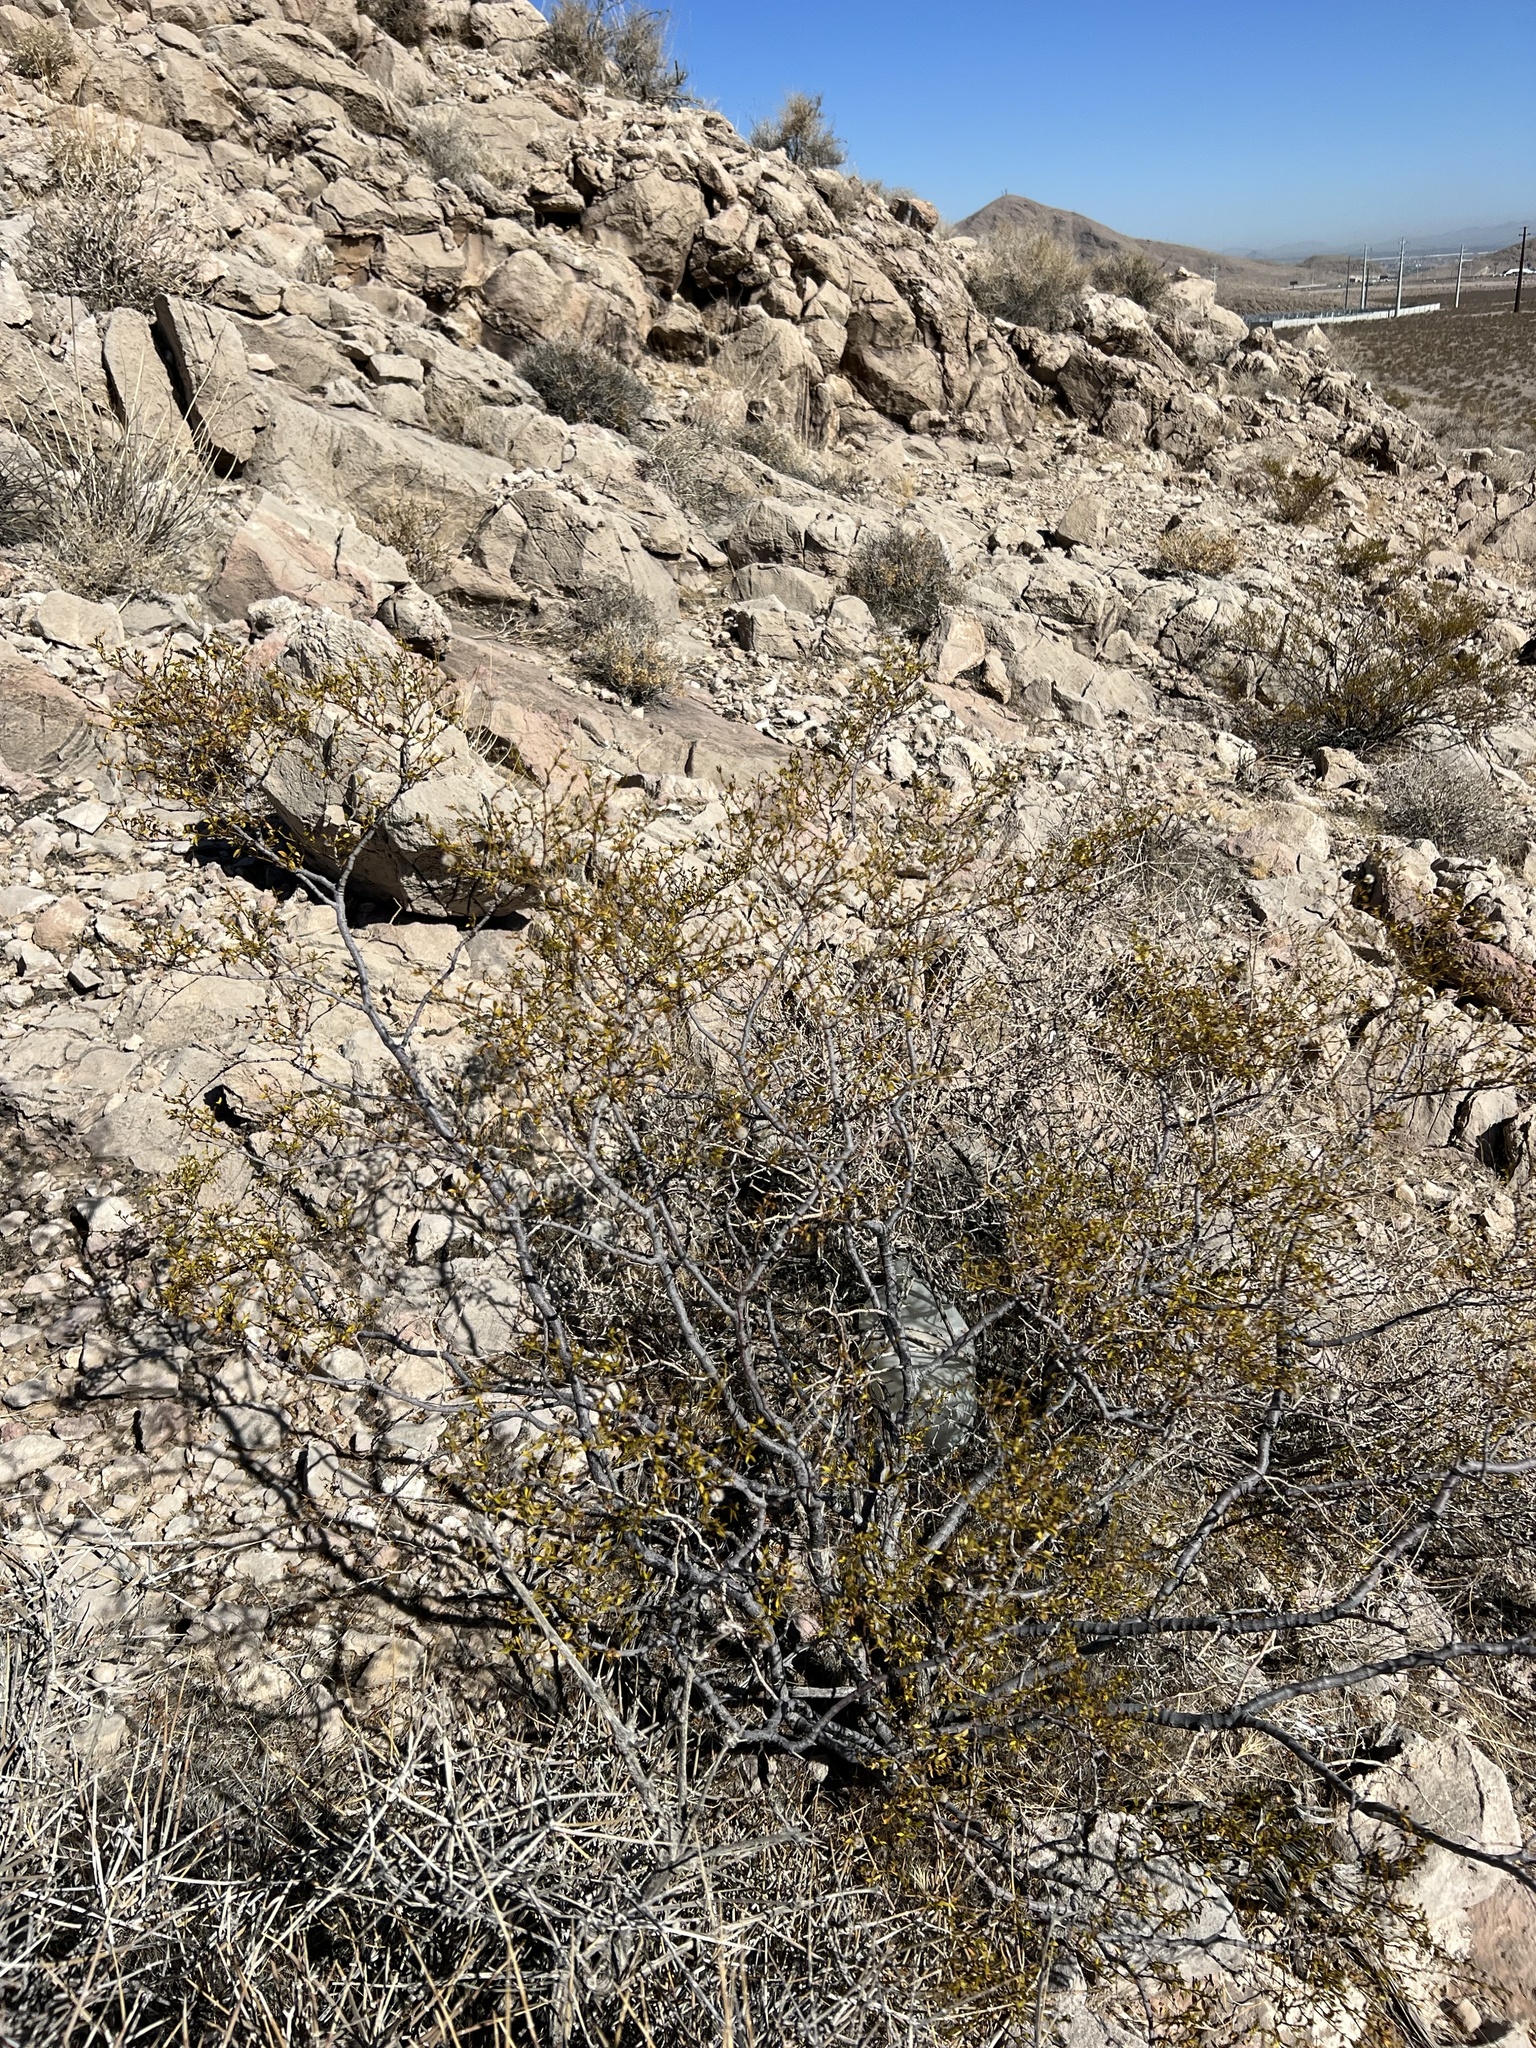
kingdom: Plantae
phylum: Tracheophyta
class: Magnoliopsida
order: Zygophyllales
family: Zygophyllaceae
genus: Larrea
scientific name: Larrea tridentata
